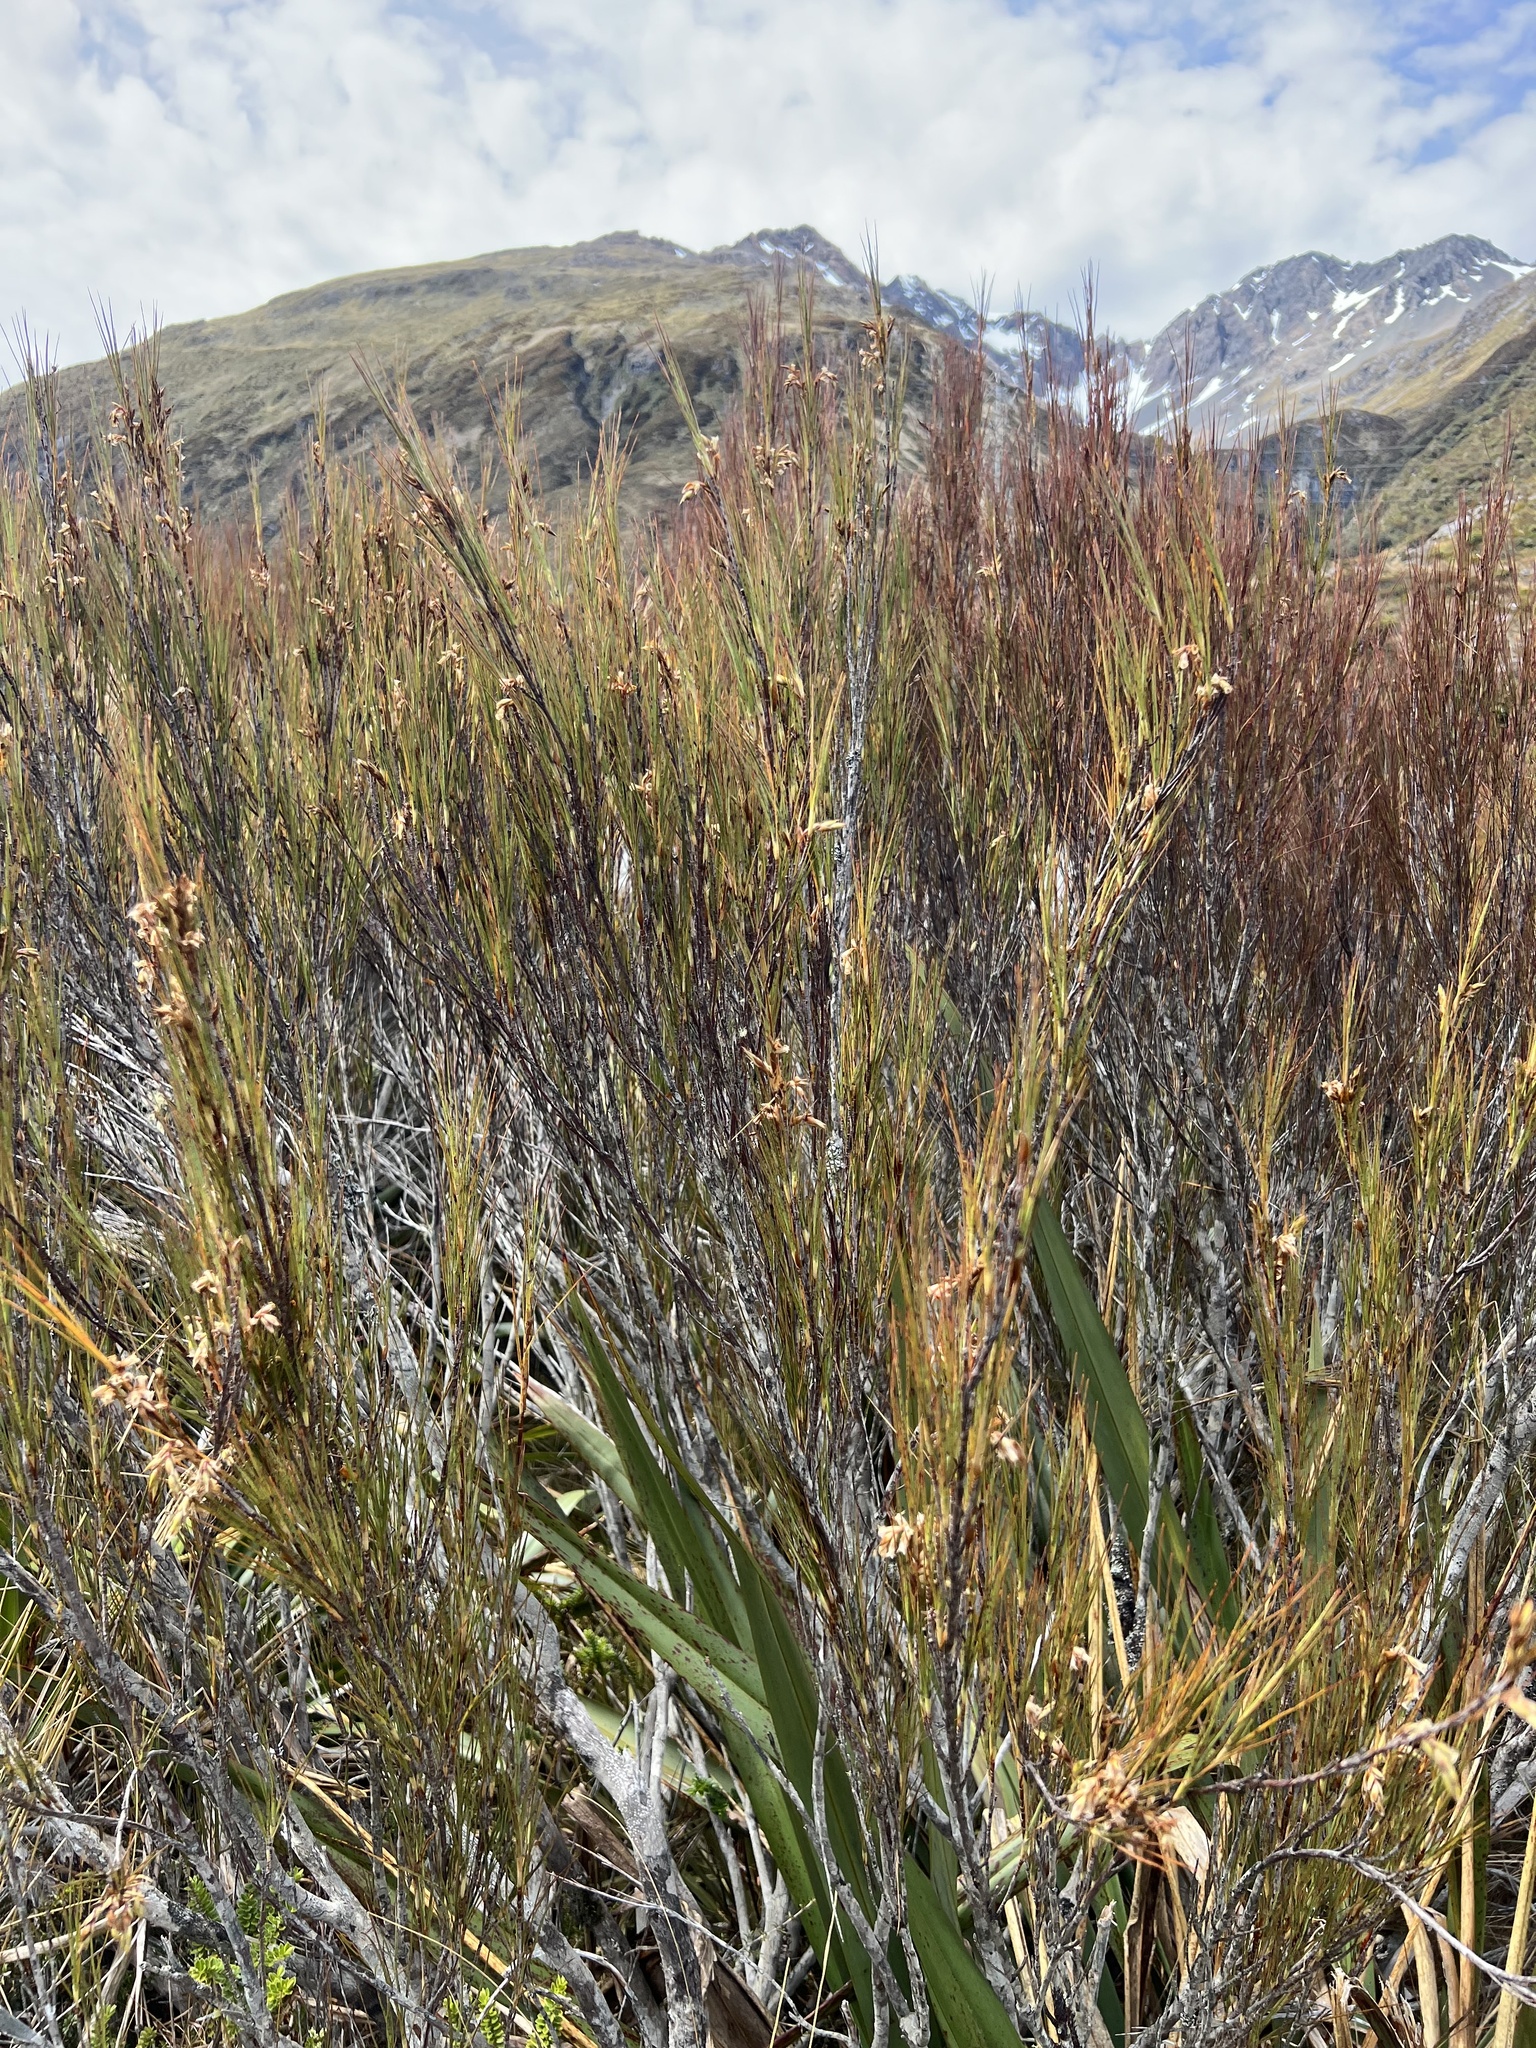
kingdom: Plantae
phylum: Tracheophyta
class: Magnoliopsida
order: Ericales
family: Ericaceae
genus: Dracophyllum
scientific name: Dracophyllum longifolium
